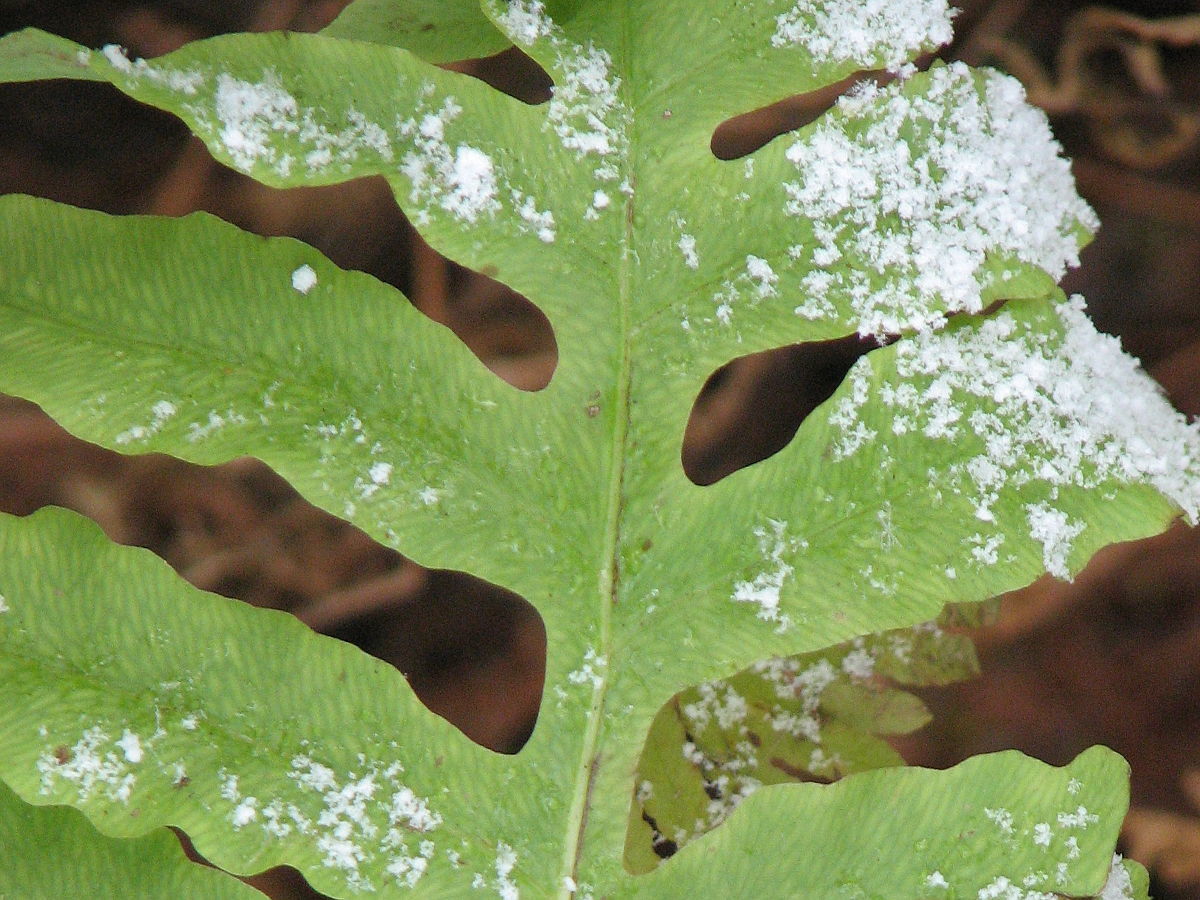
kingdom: Plantae
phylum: Tracheophyta
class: Polypodiopsida
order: Polypodiales
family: Onocleaceae
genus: Onoclea
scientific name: Onoclea sensibilis
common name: Sensitive fern
